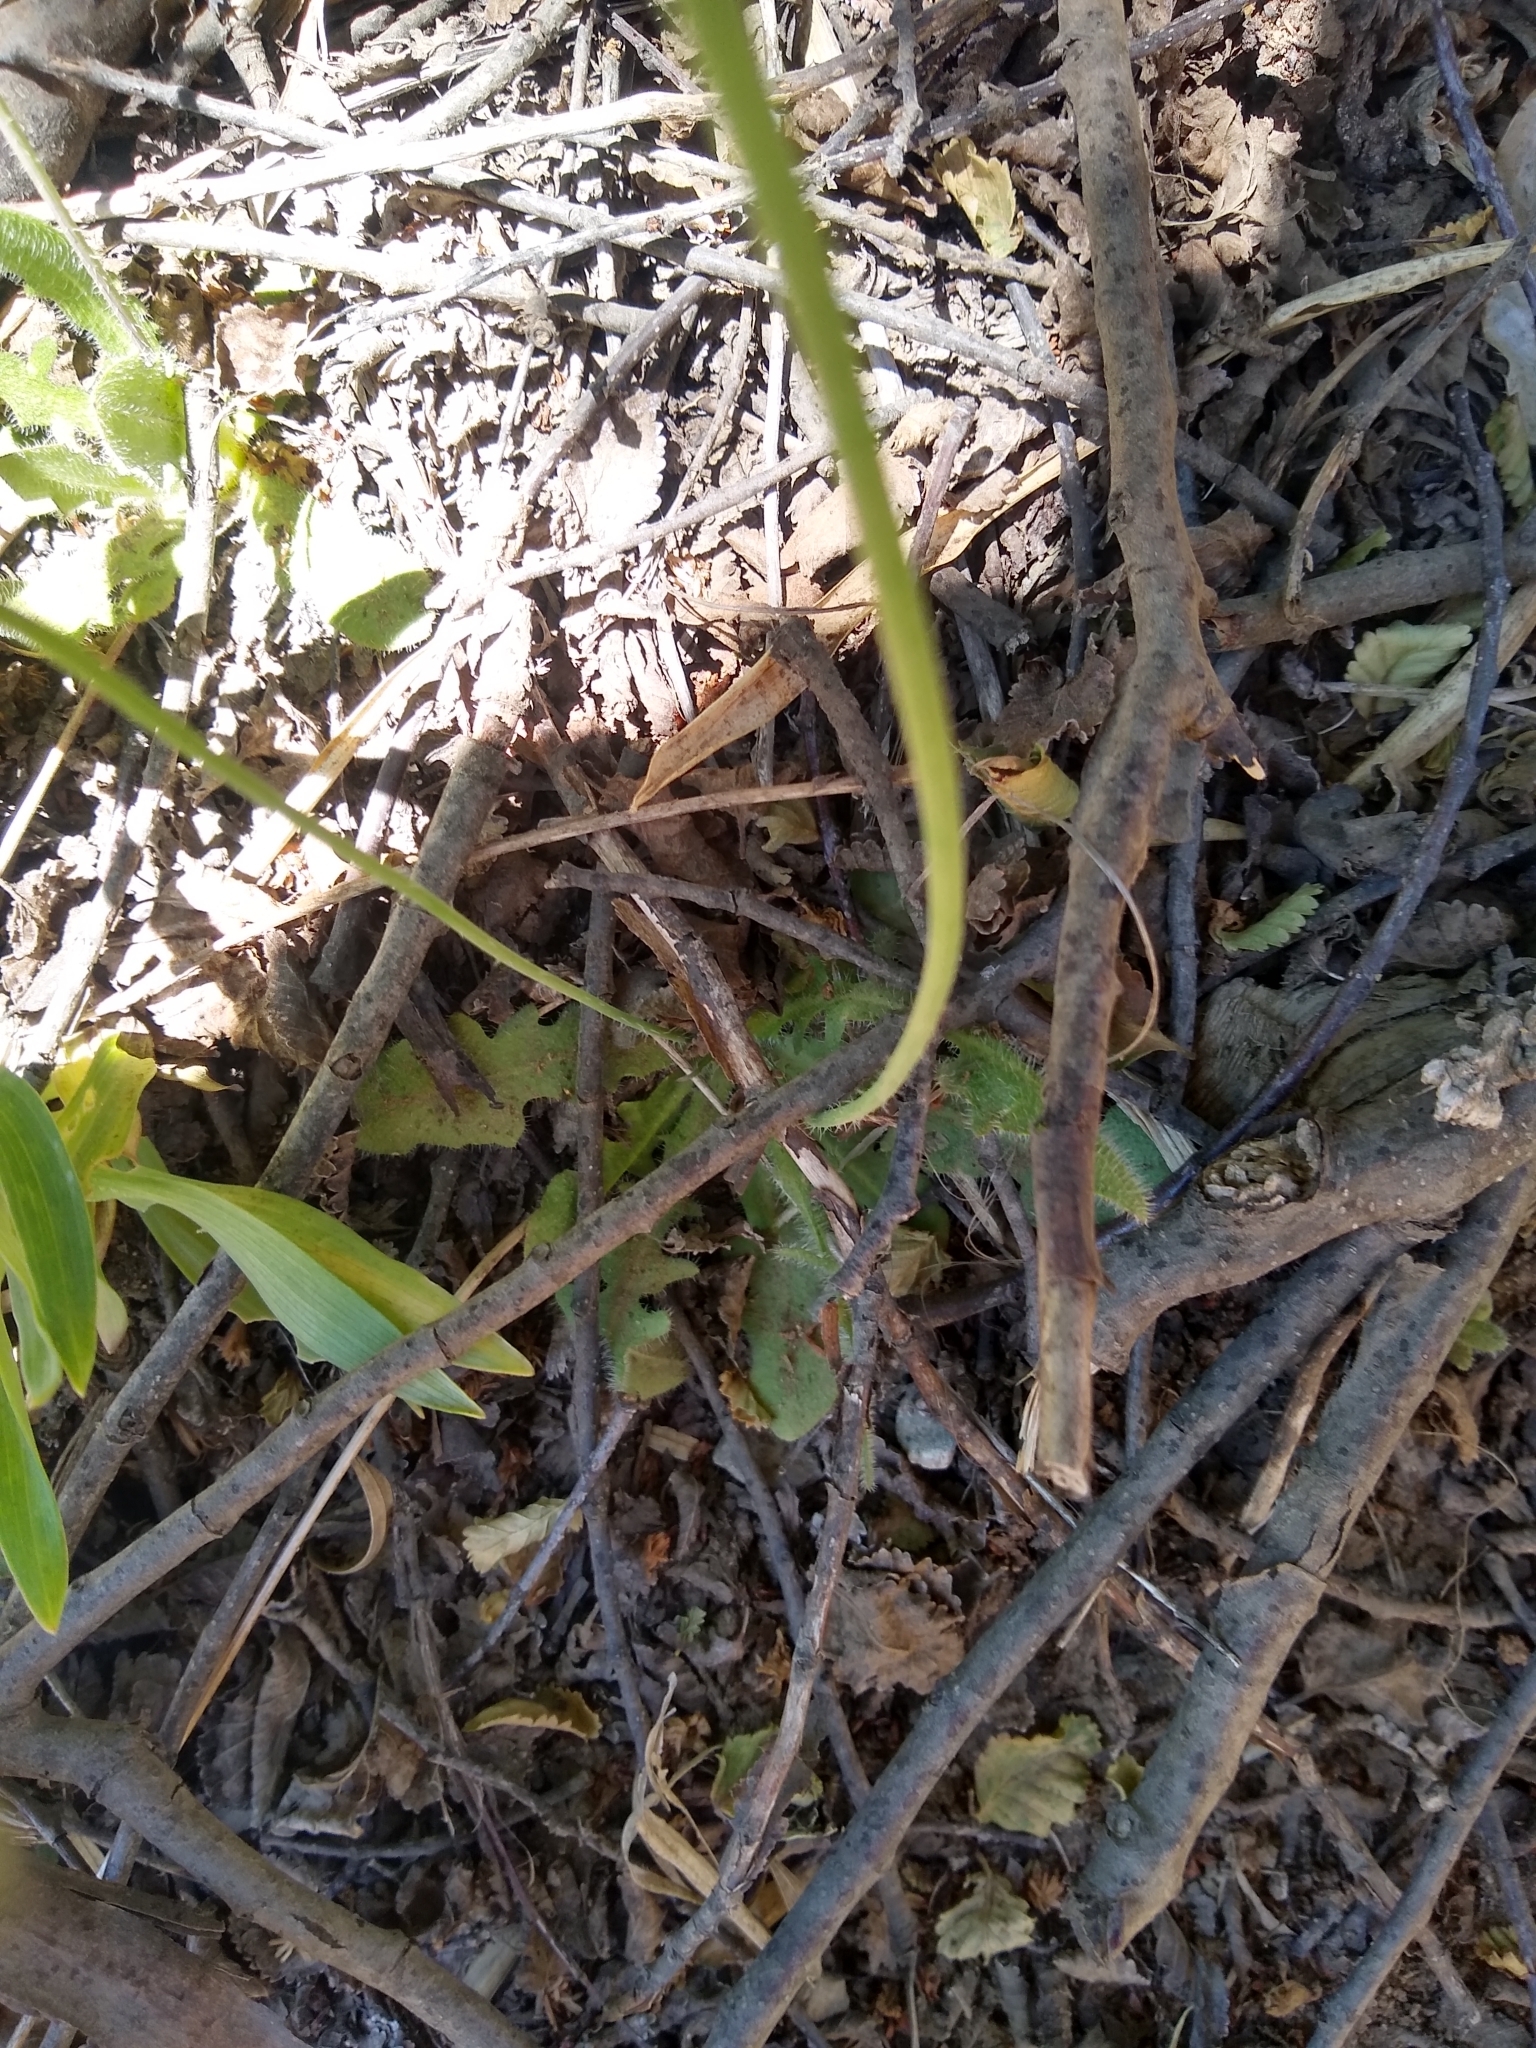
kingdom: Plantae
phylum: Tracheophyta
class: Magnoliopsida
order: Asterales
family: Asteraceae
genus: Hypochaeris
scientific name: Hypochaeris radicata
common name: Flatweed
